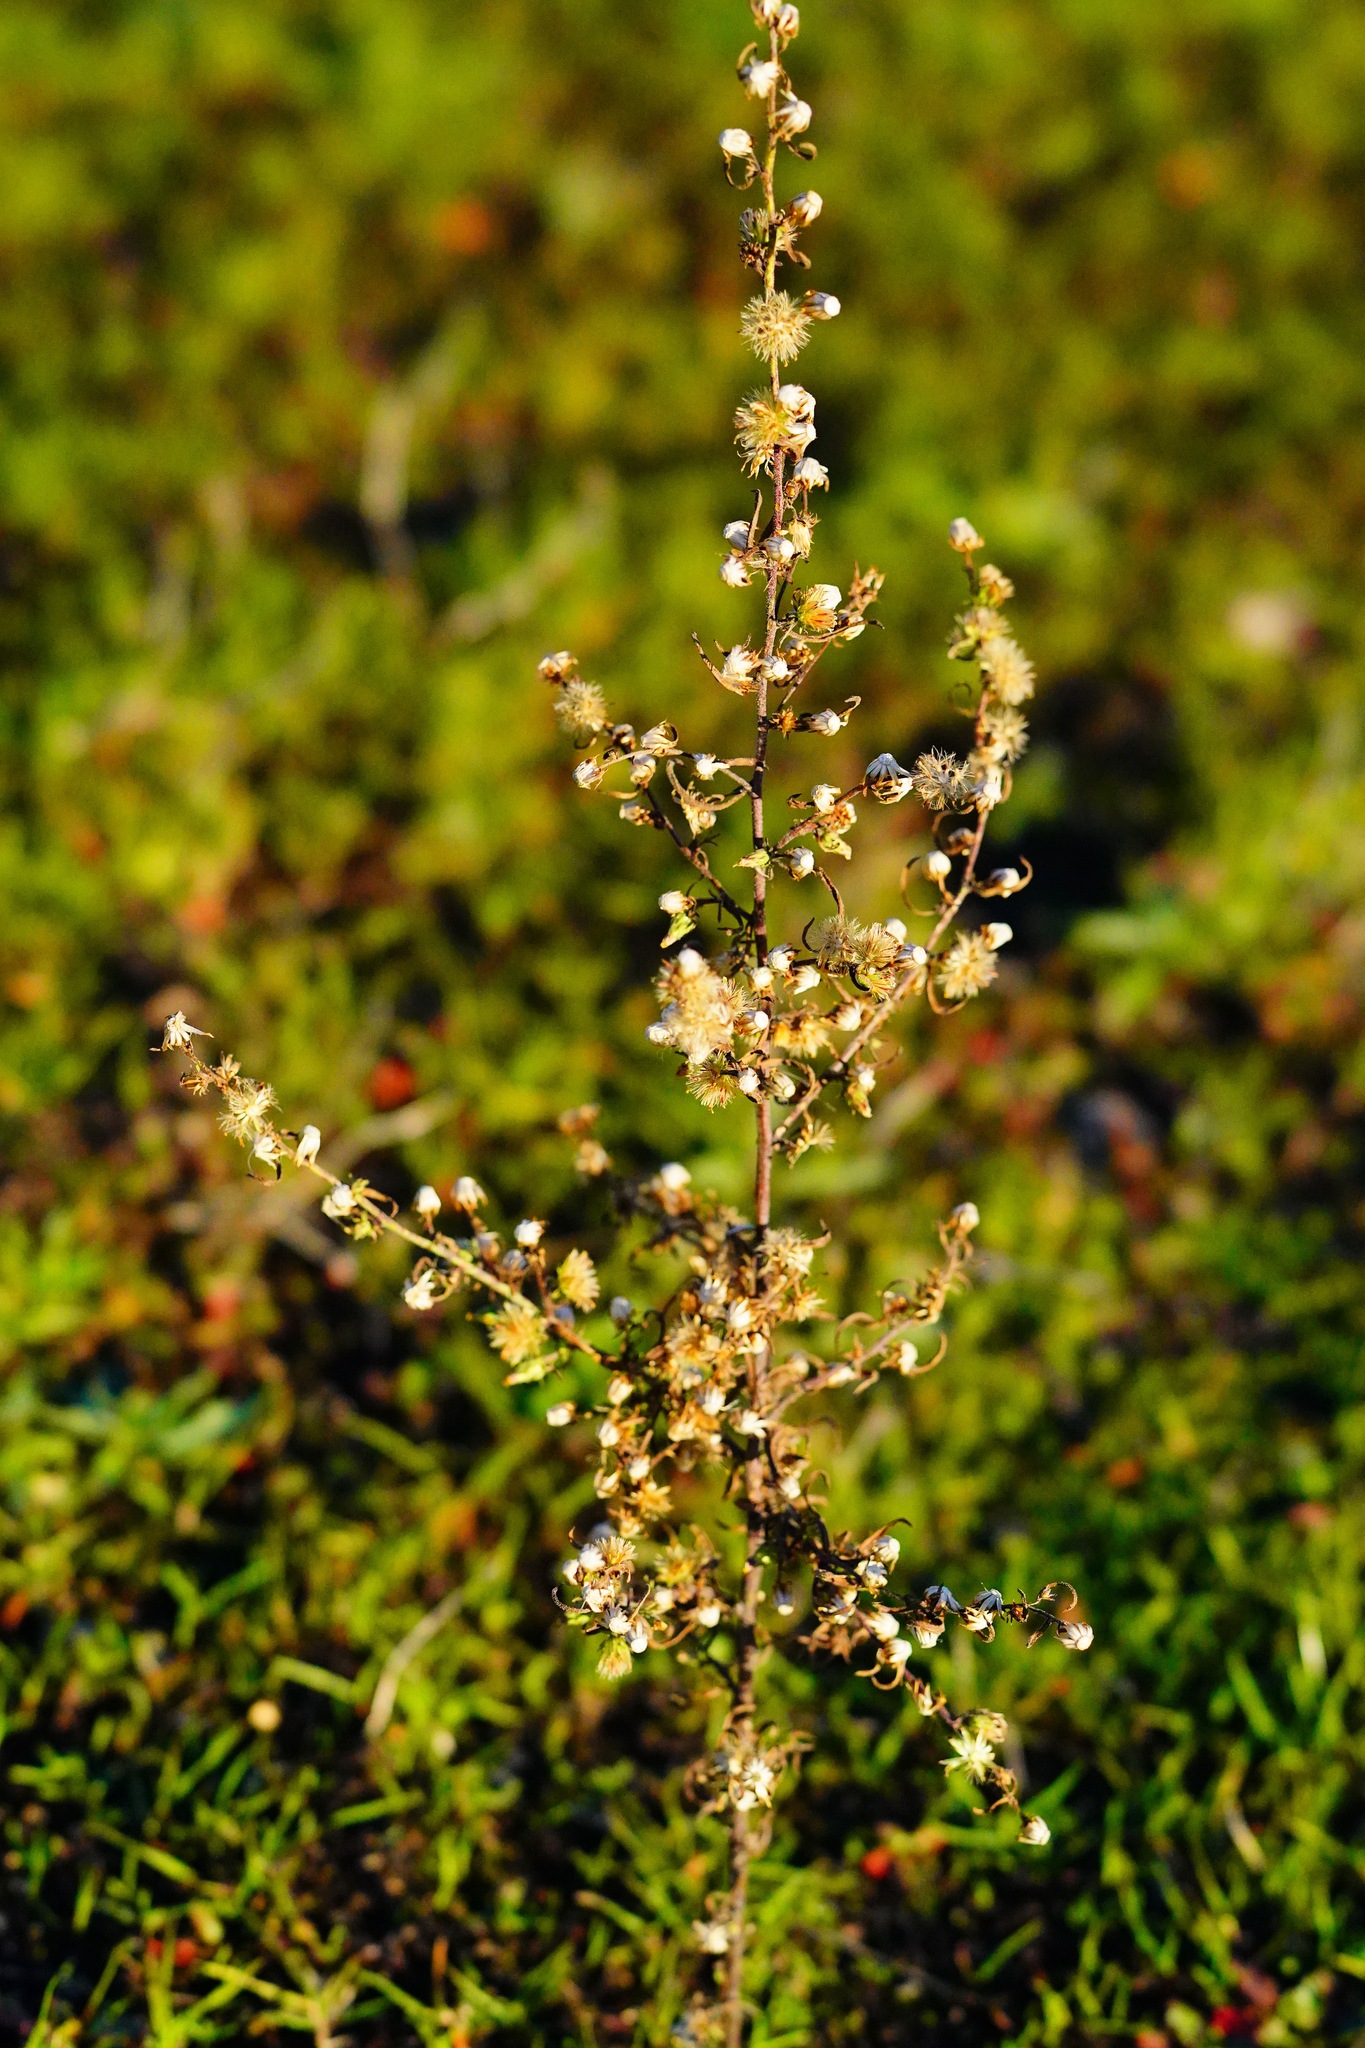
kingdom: Plantae
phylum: Tracheophyta
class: Magnoliopsida
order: Asterales
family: Asteraceae
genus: Dittrichia
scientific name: Dittrichia graveolens
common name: Stinking fleabane
